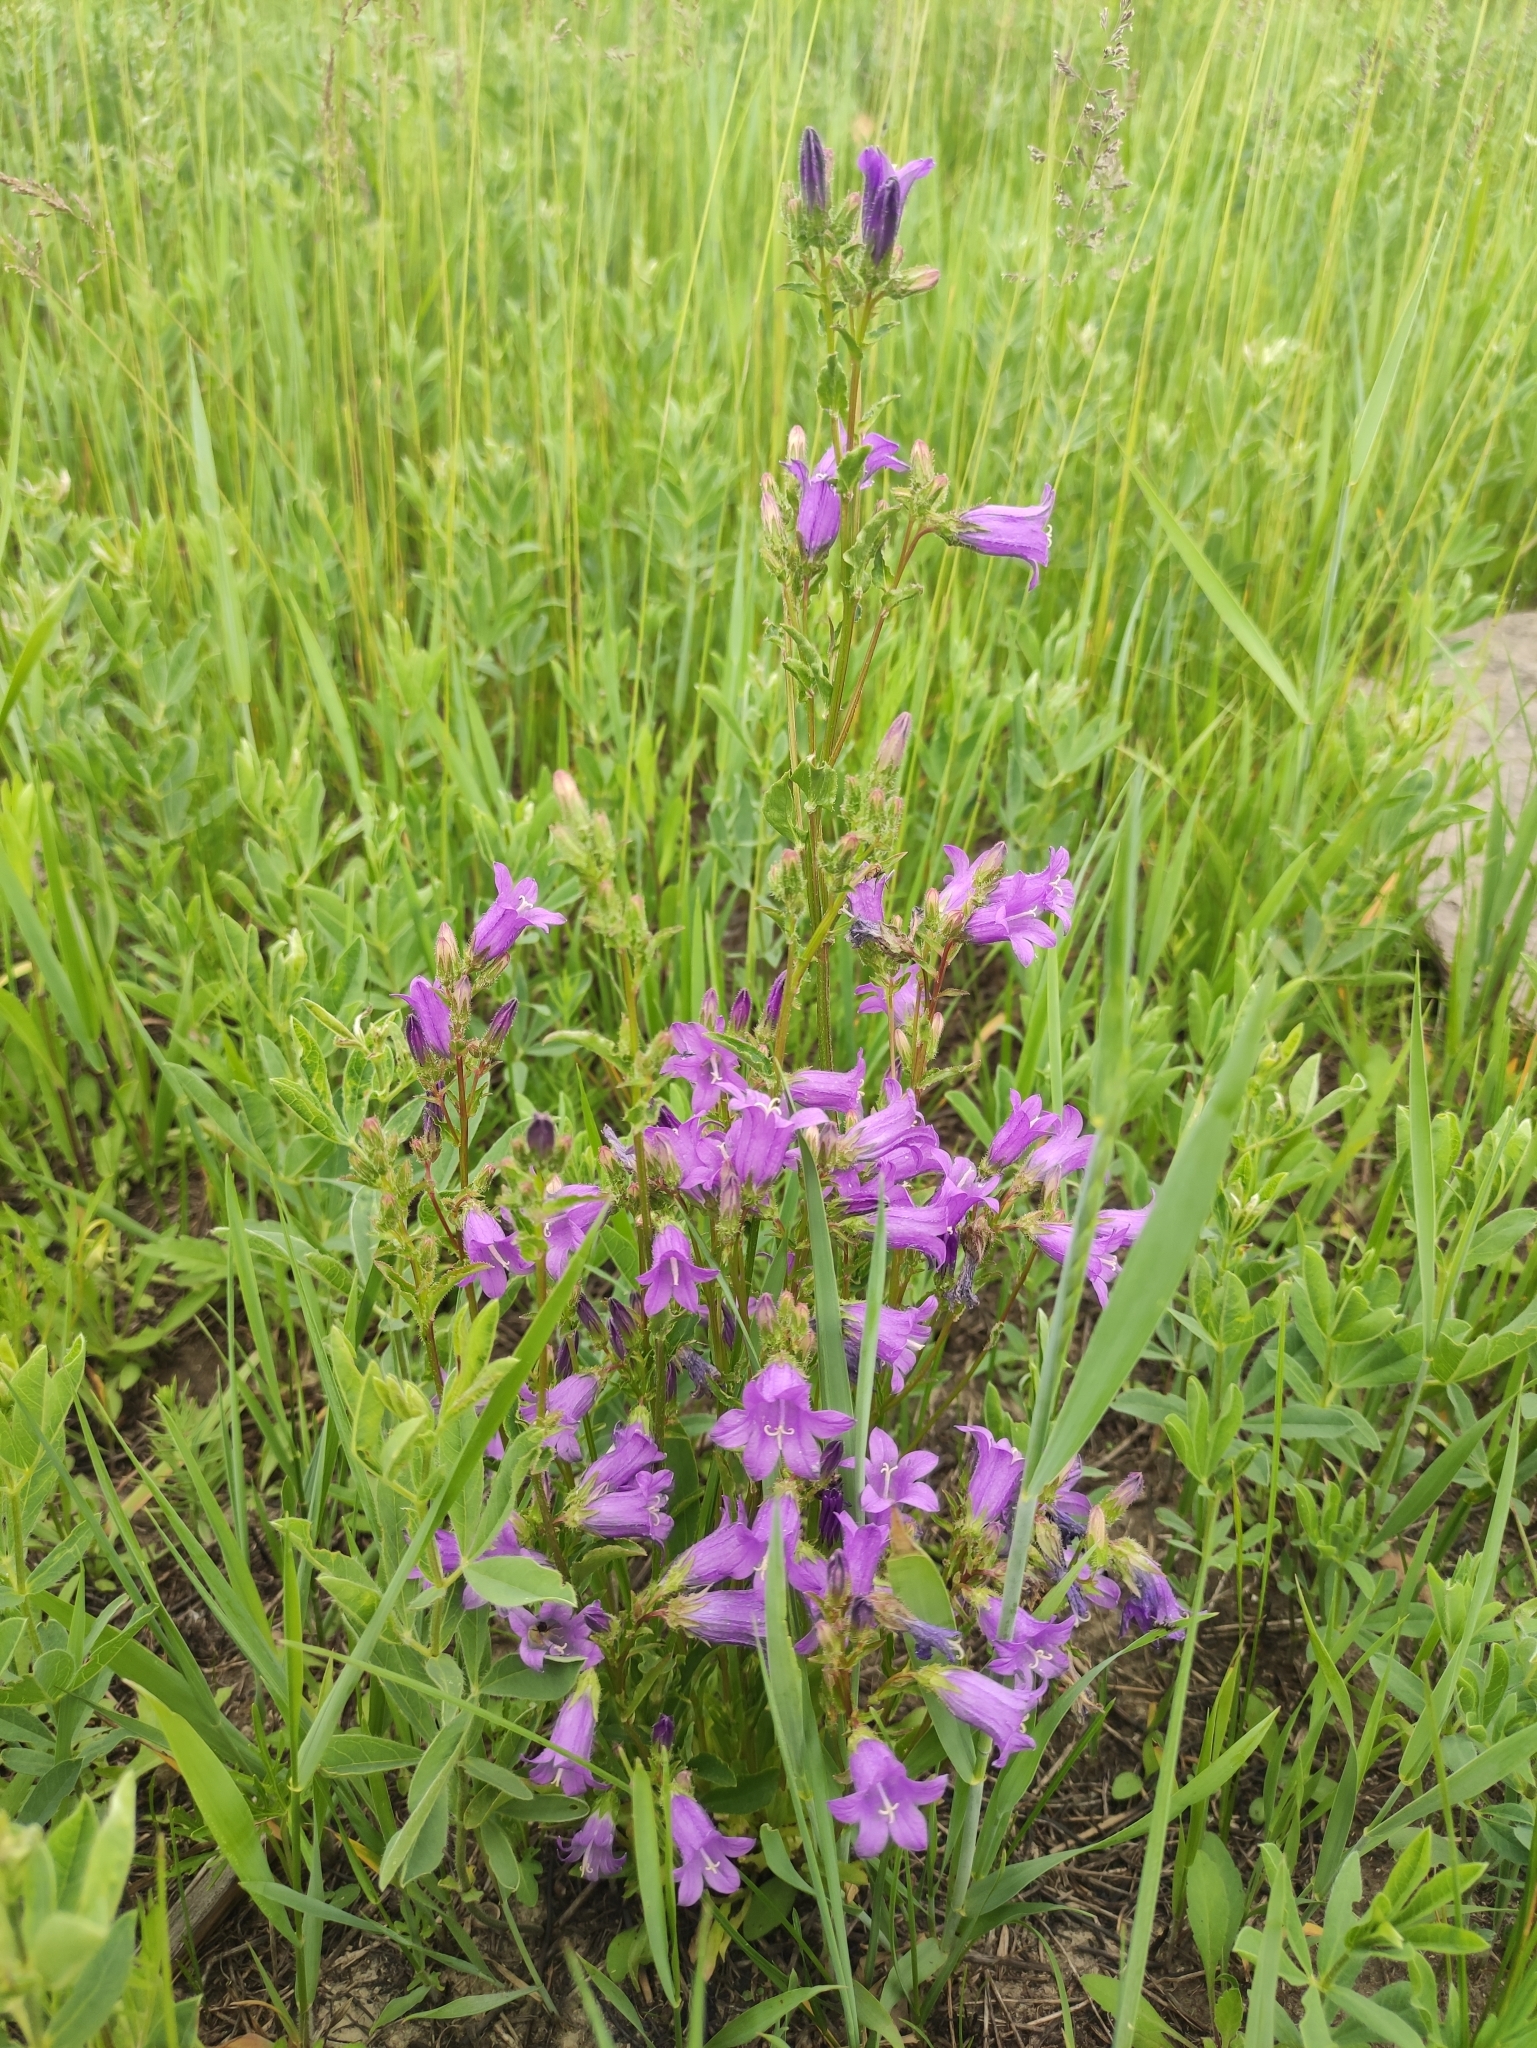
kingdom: Plantae
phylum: Tracheophyta
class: Magnoliopsida
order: Asterales
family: Campanulaceae
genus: Campanula
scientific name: Campanula sibirica
